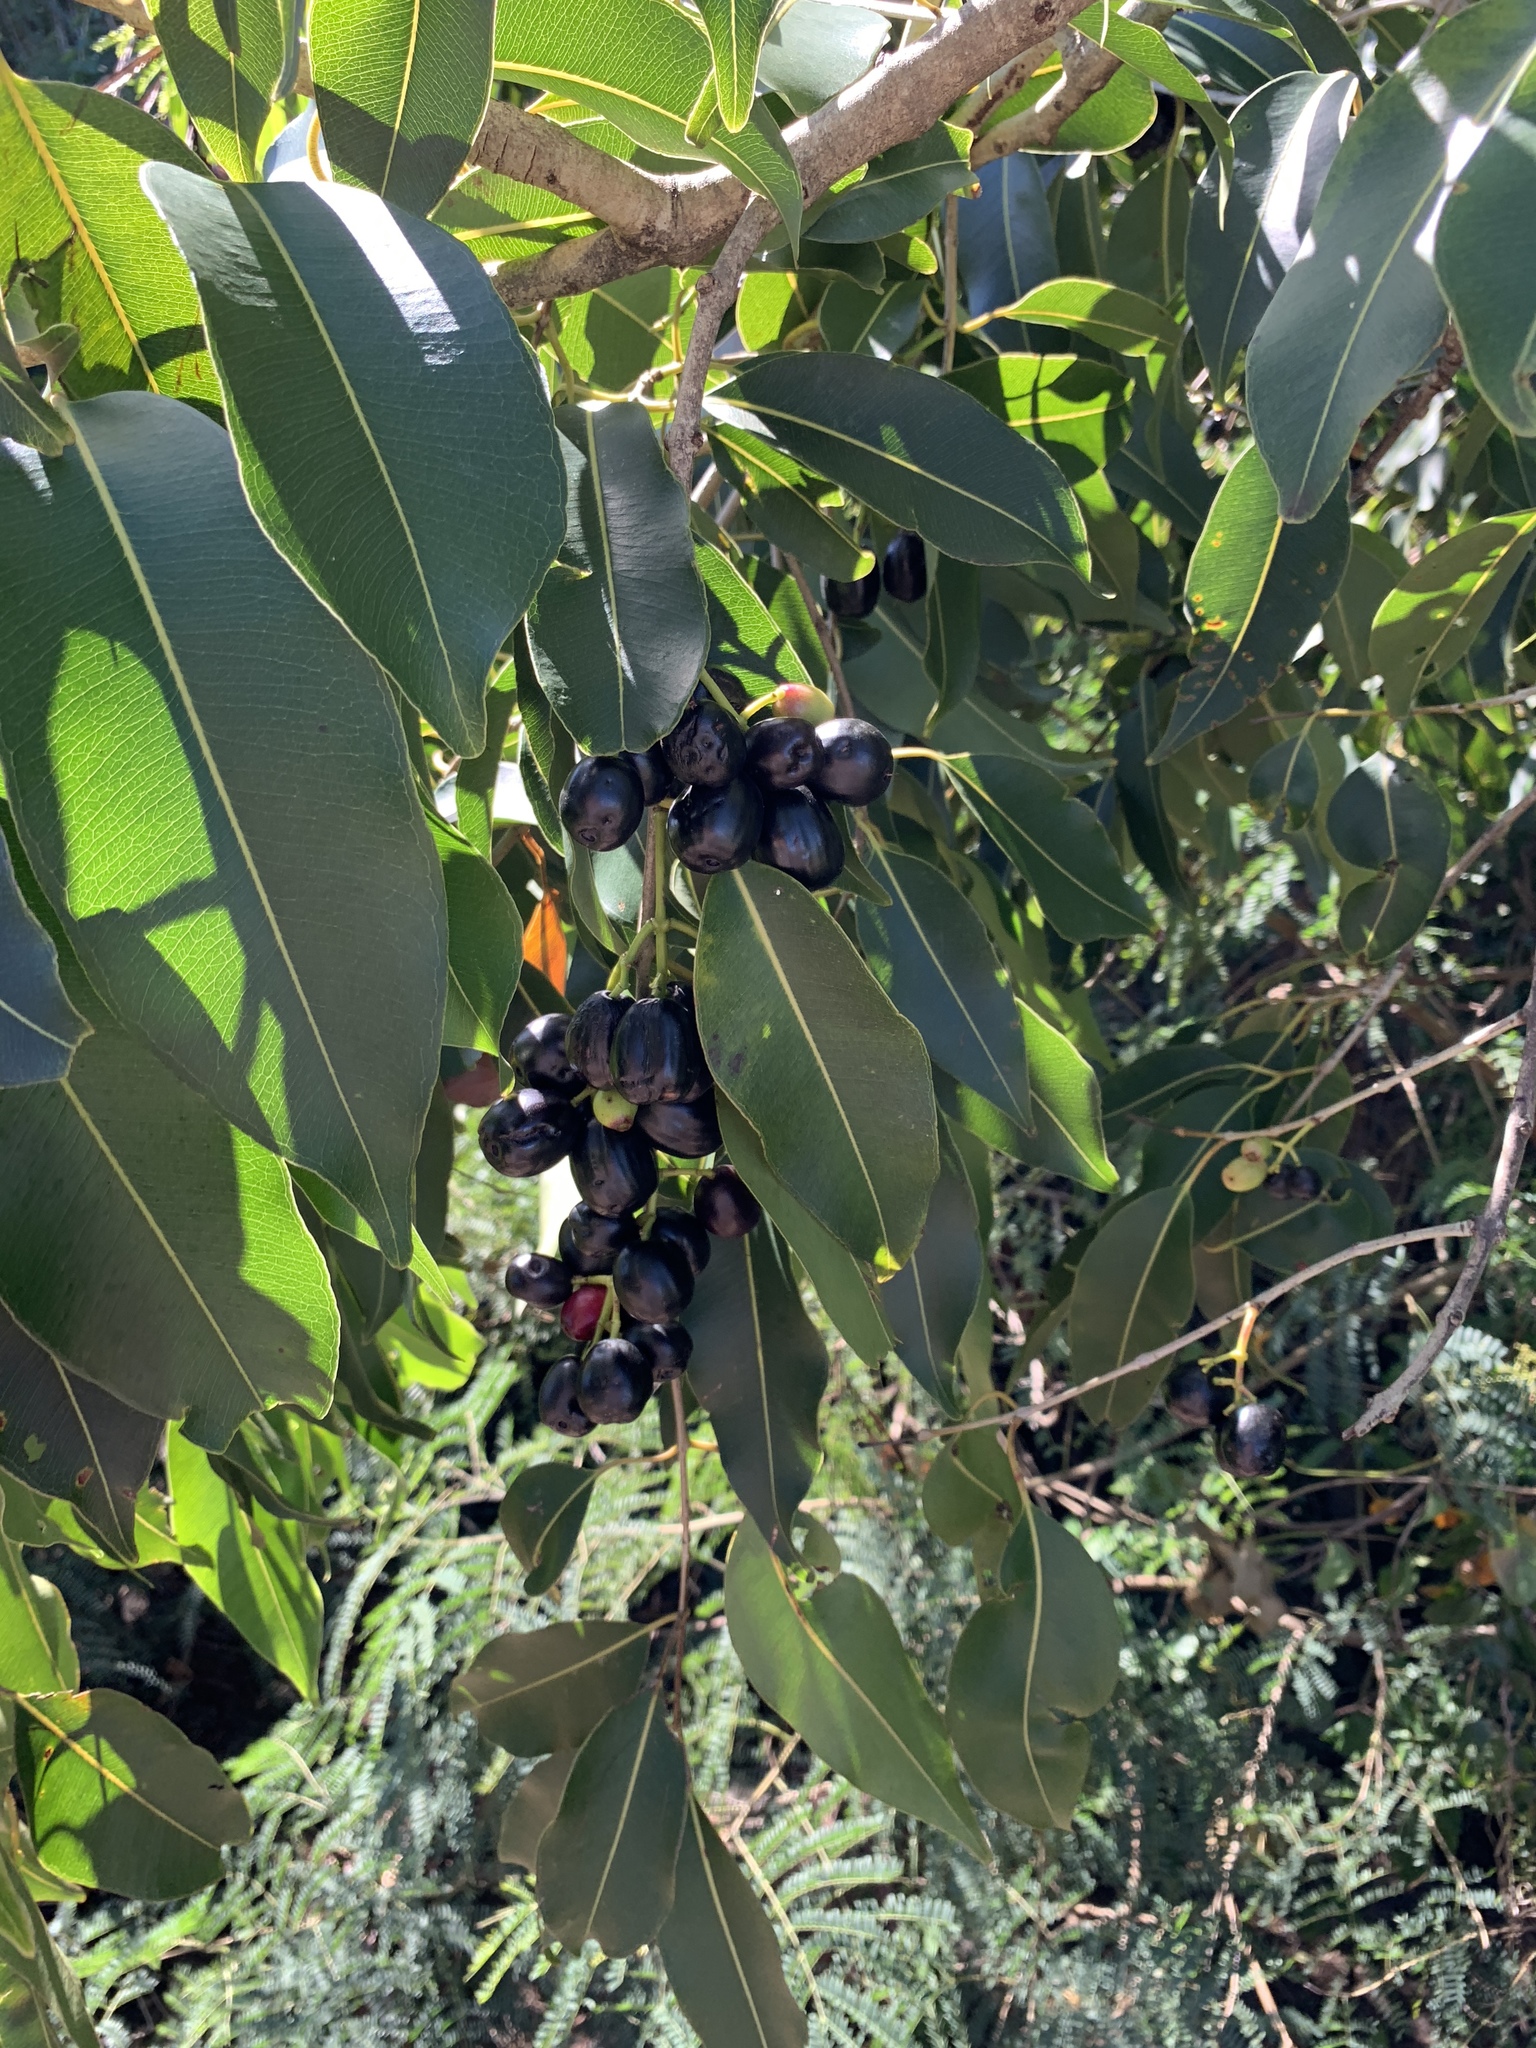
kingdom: Plantae
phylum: Tracheophyta
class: Magnoliopsida
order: Myrtales
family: Myrtaceae
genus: Syzygium
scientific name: Syzygium cumini
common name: Java plum
